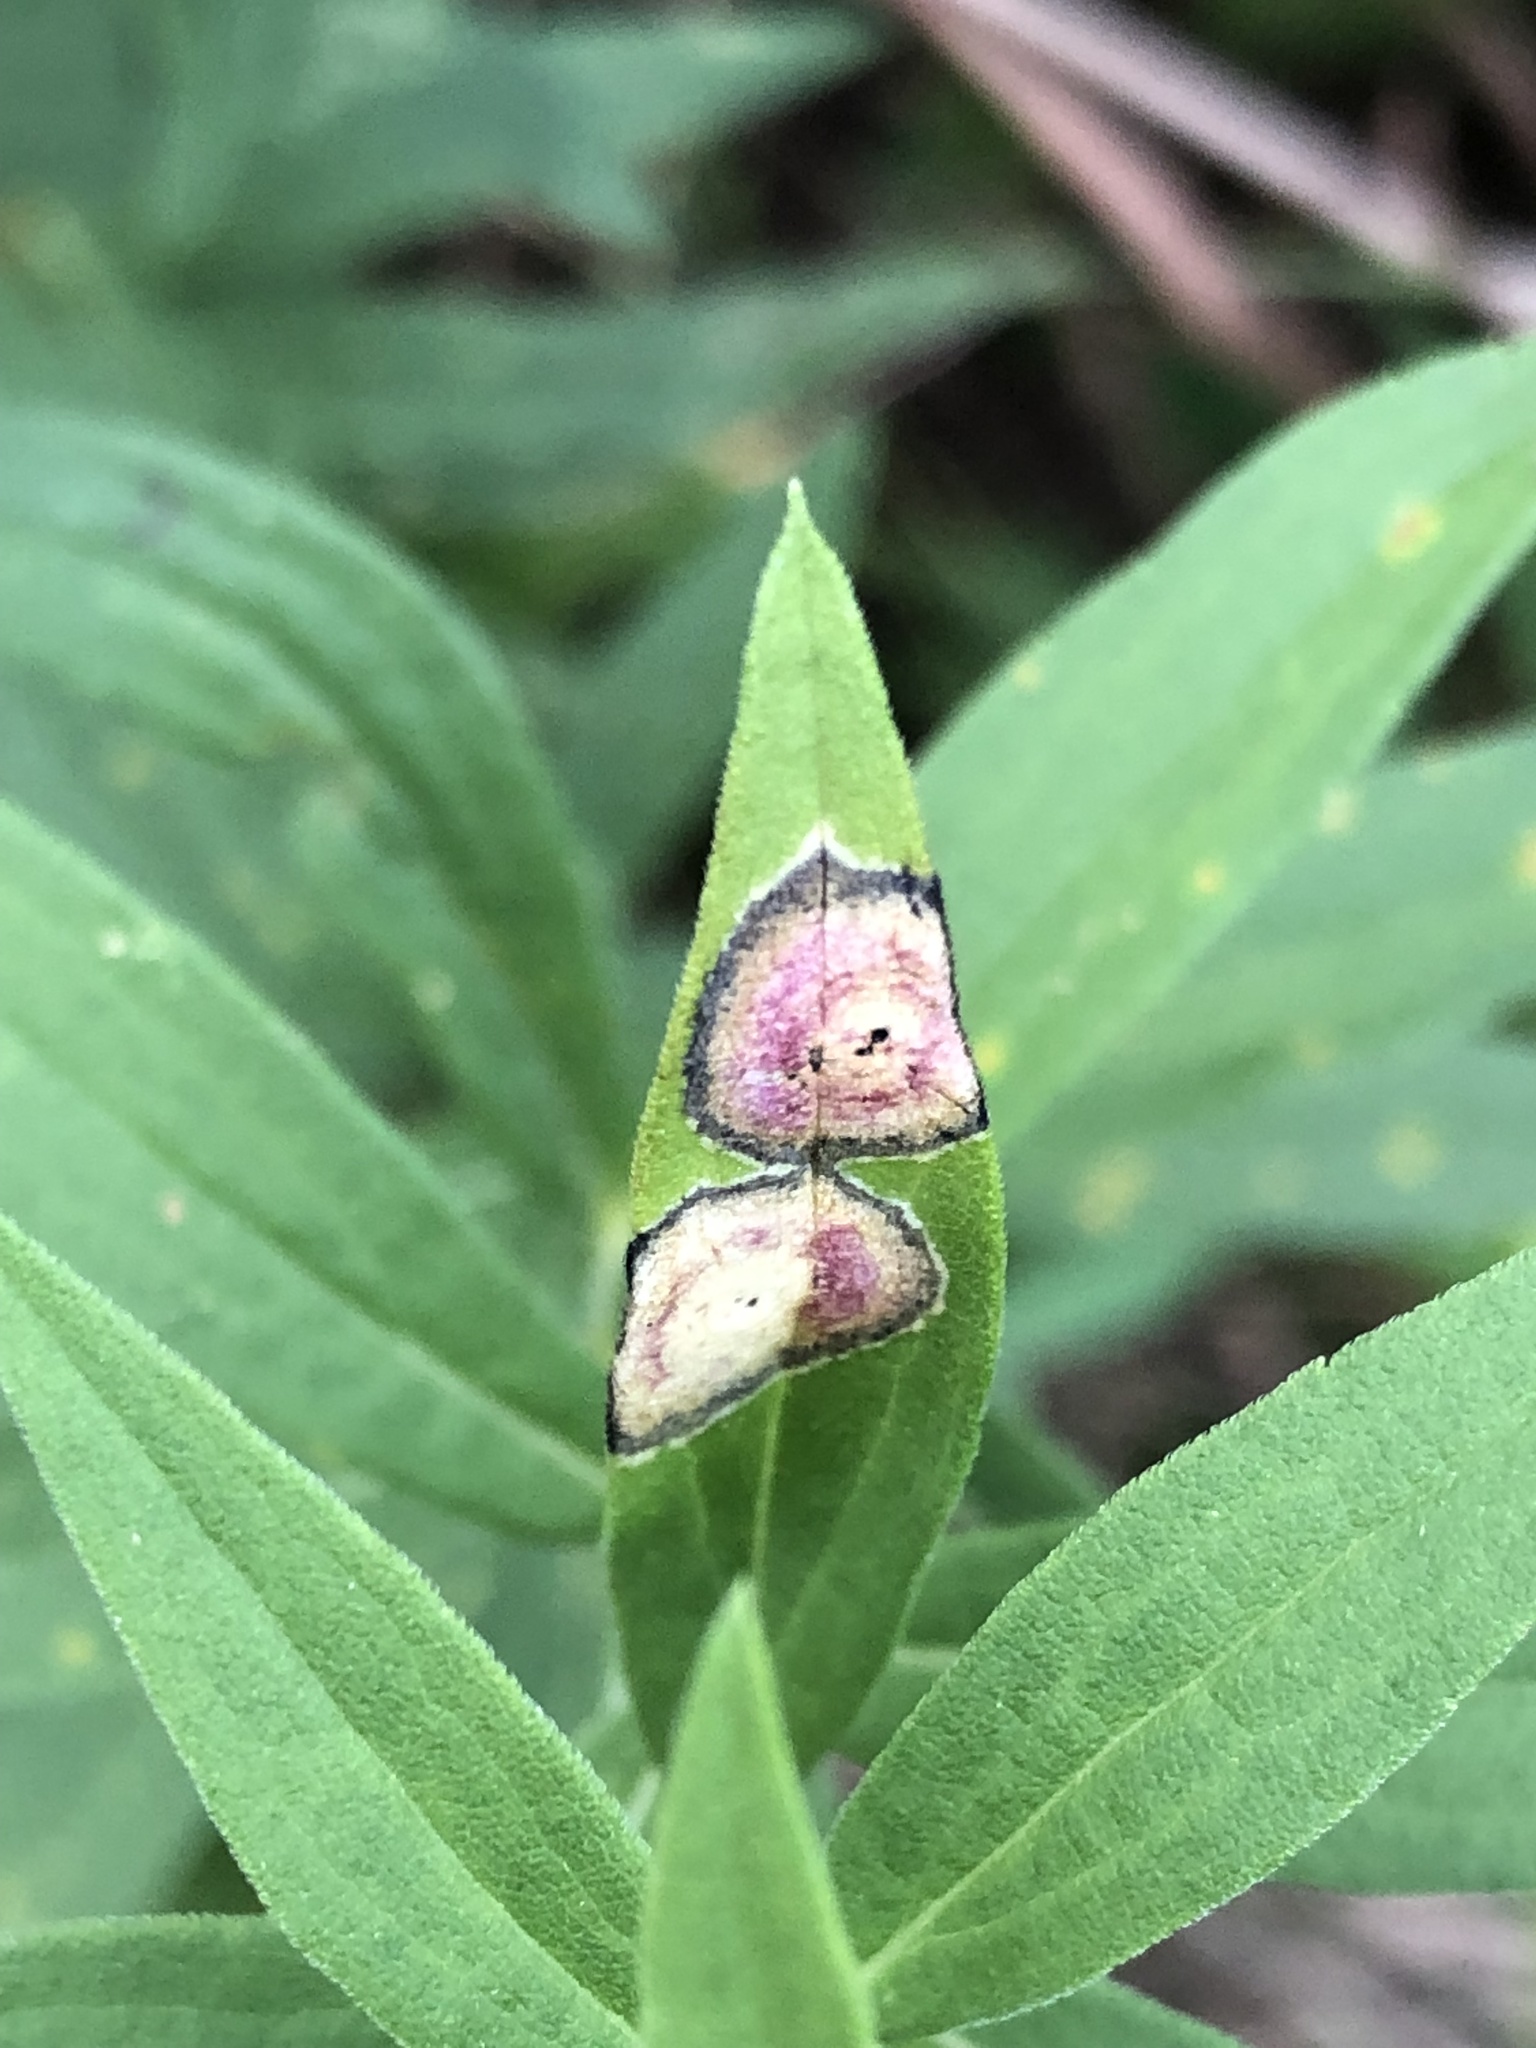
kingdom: Animalia
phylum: Arthropoda
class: Insecta
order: Diptera
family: Cecidomyiidae
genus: Asteromyia
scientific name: Asteromyia carbonifera
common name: Carbonifera goldenrod gall midge
